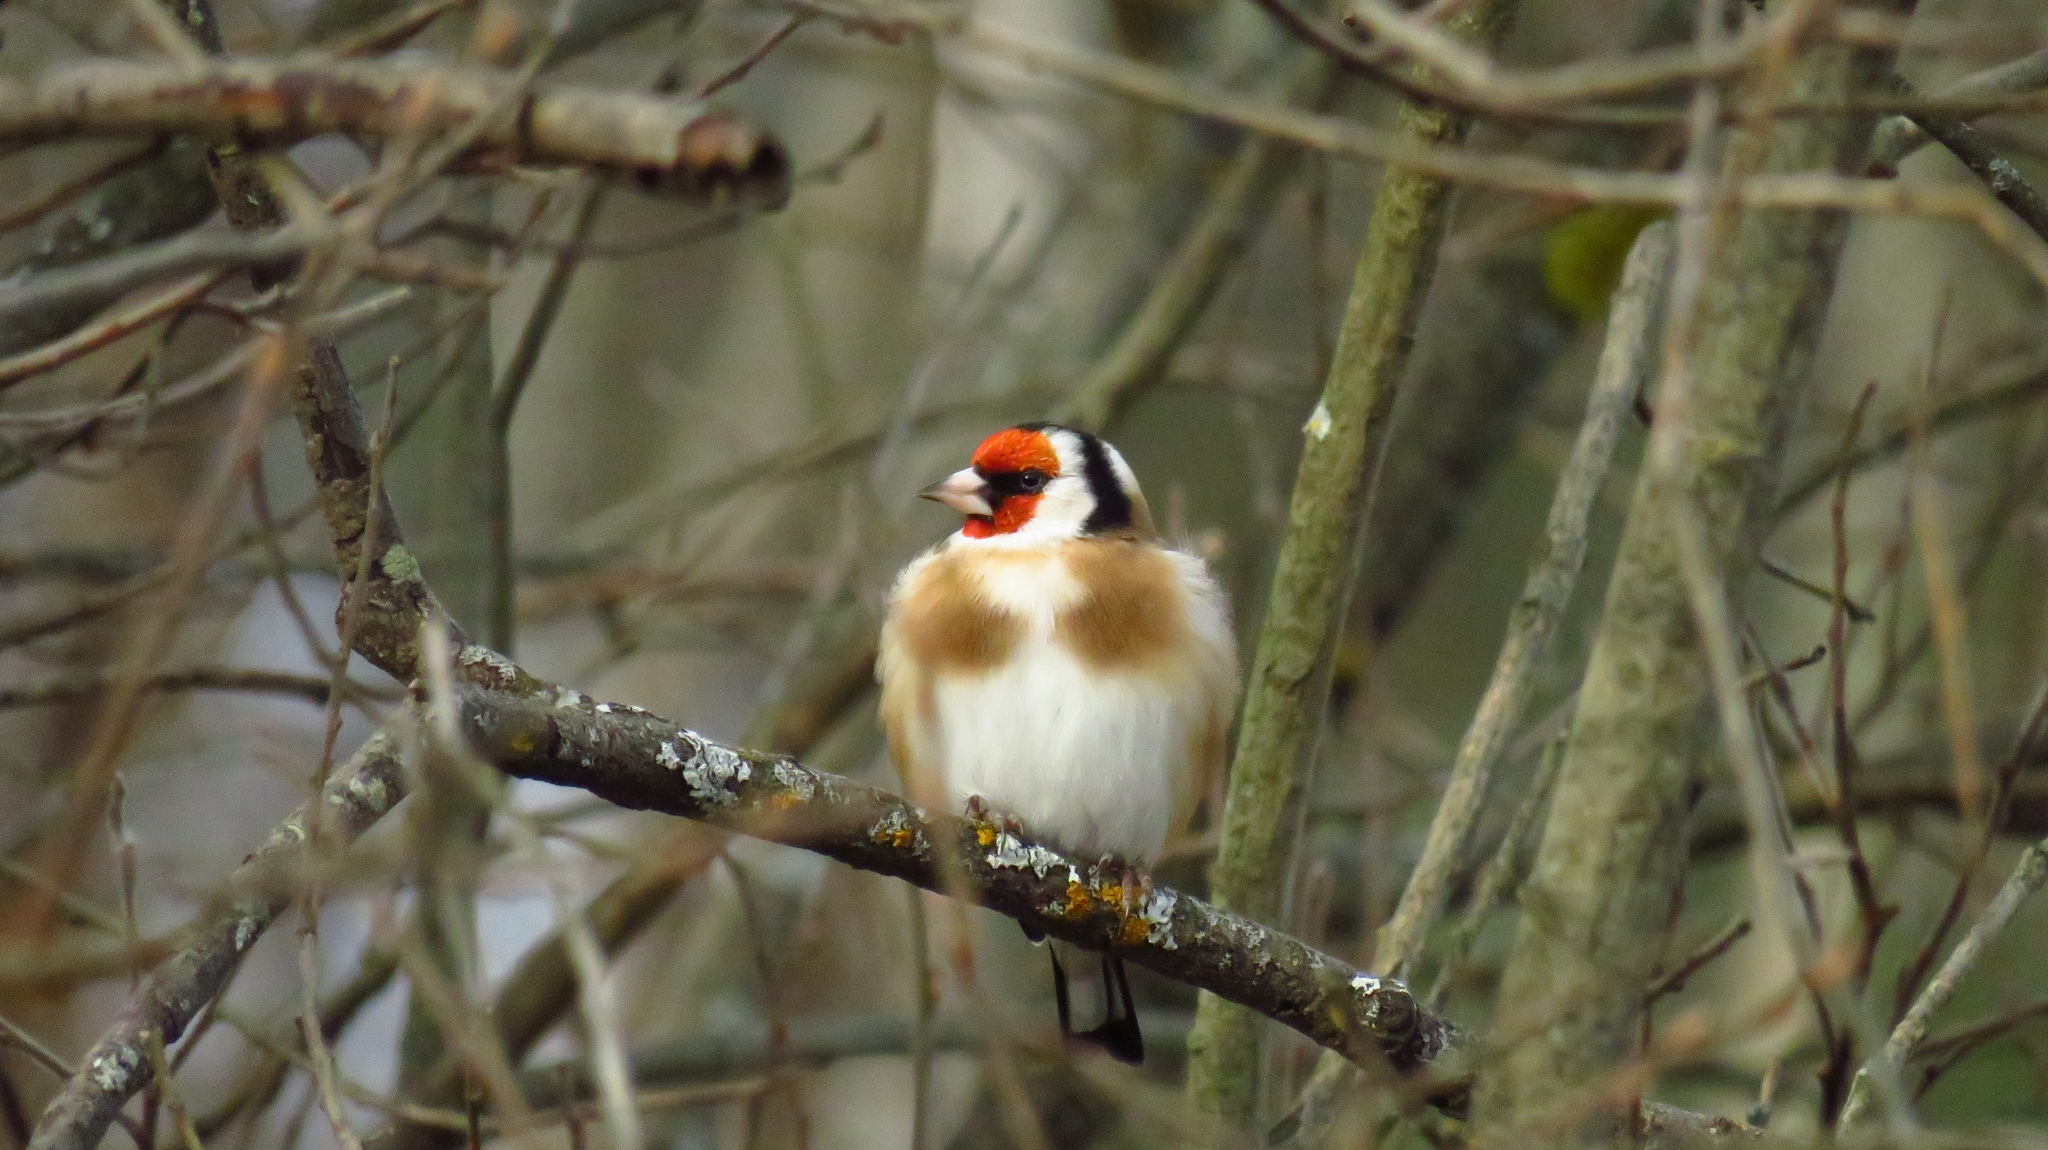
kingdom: Animalia
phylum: Chordata
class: Aves
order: Passeriformes
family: Fringillidae
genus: Carduelis
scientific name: Carduelis carduelis
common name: European goldfinch
